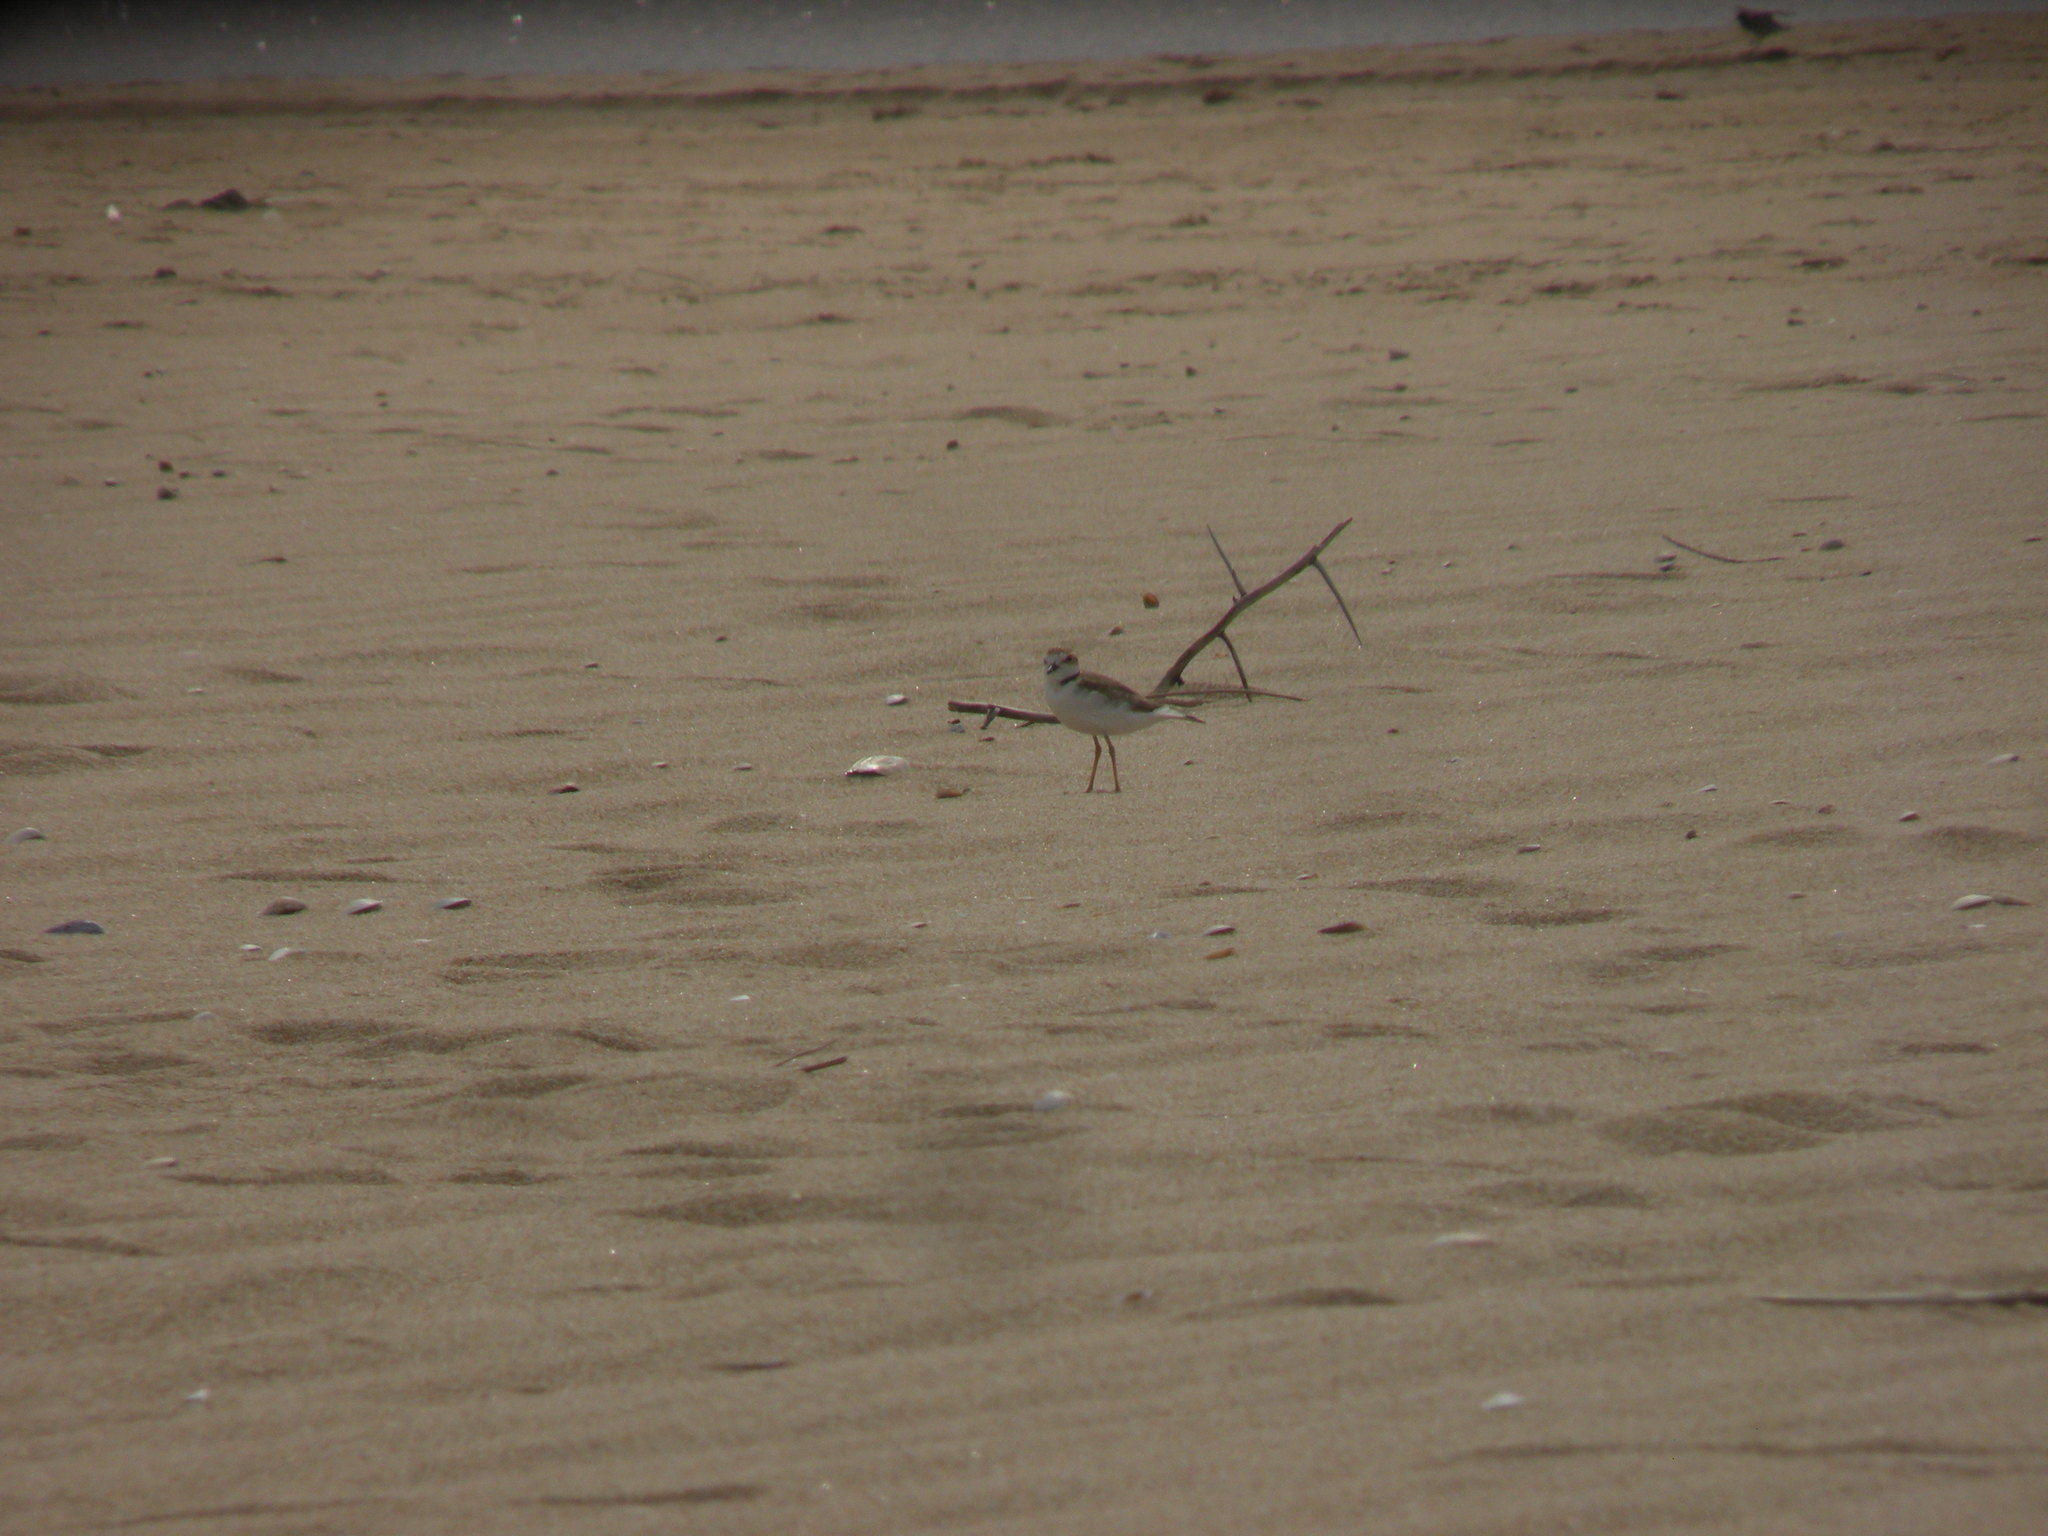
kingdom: Animalia
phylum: Chordata
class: Aves
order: Charadriiformes
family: Charadriidae
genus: Anarhynchus
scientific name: Anarhynchus
